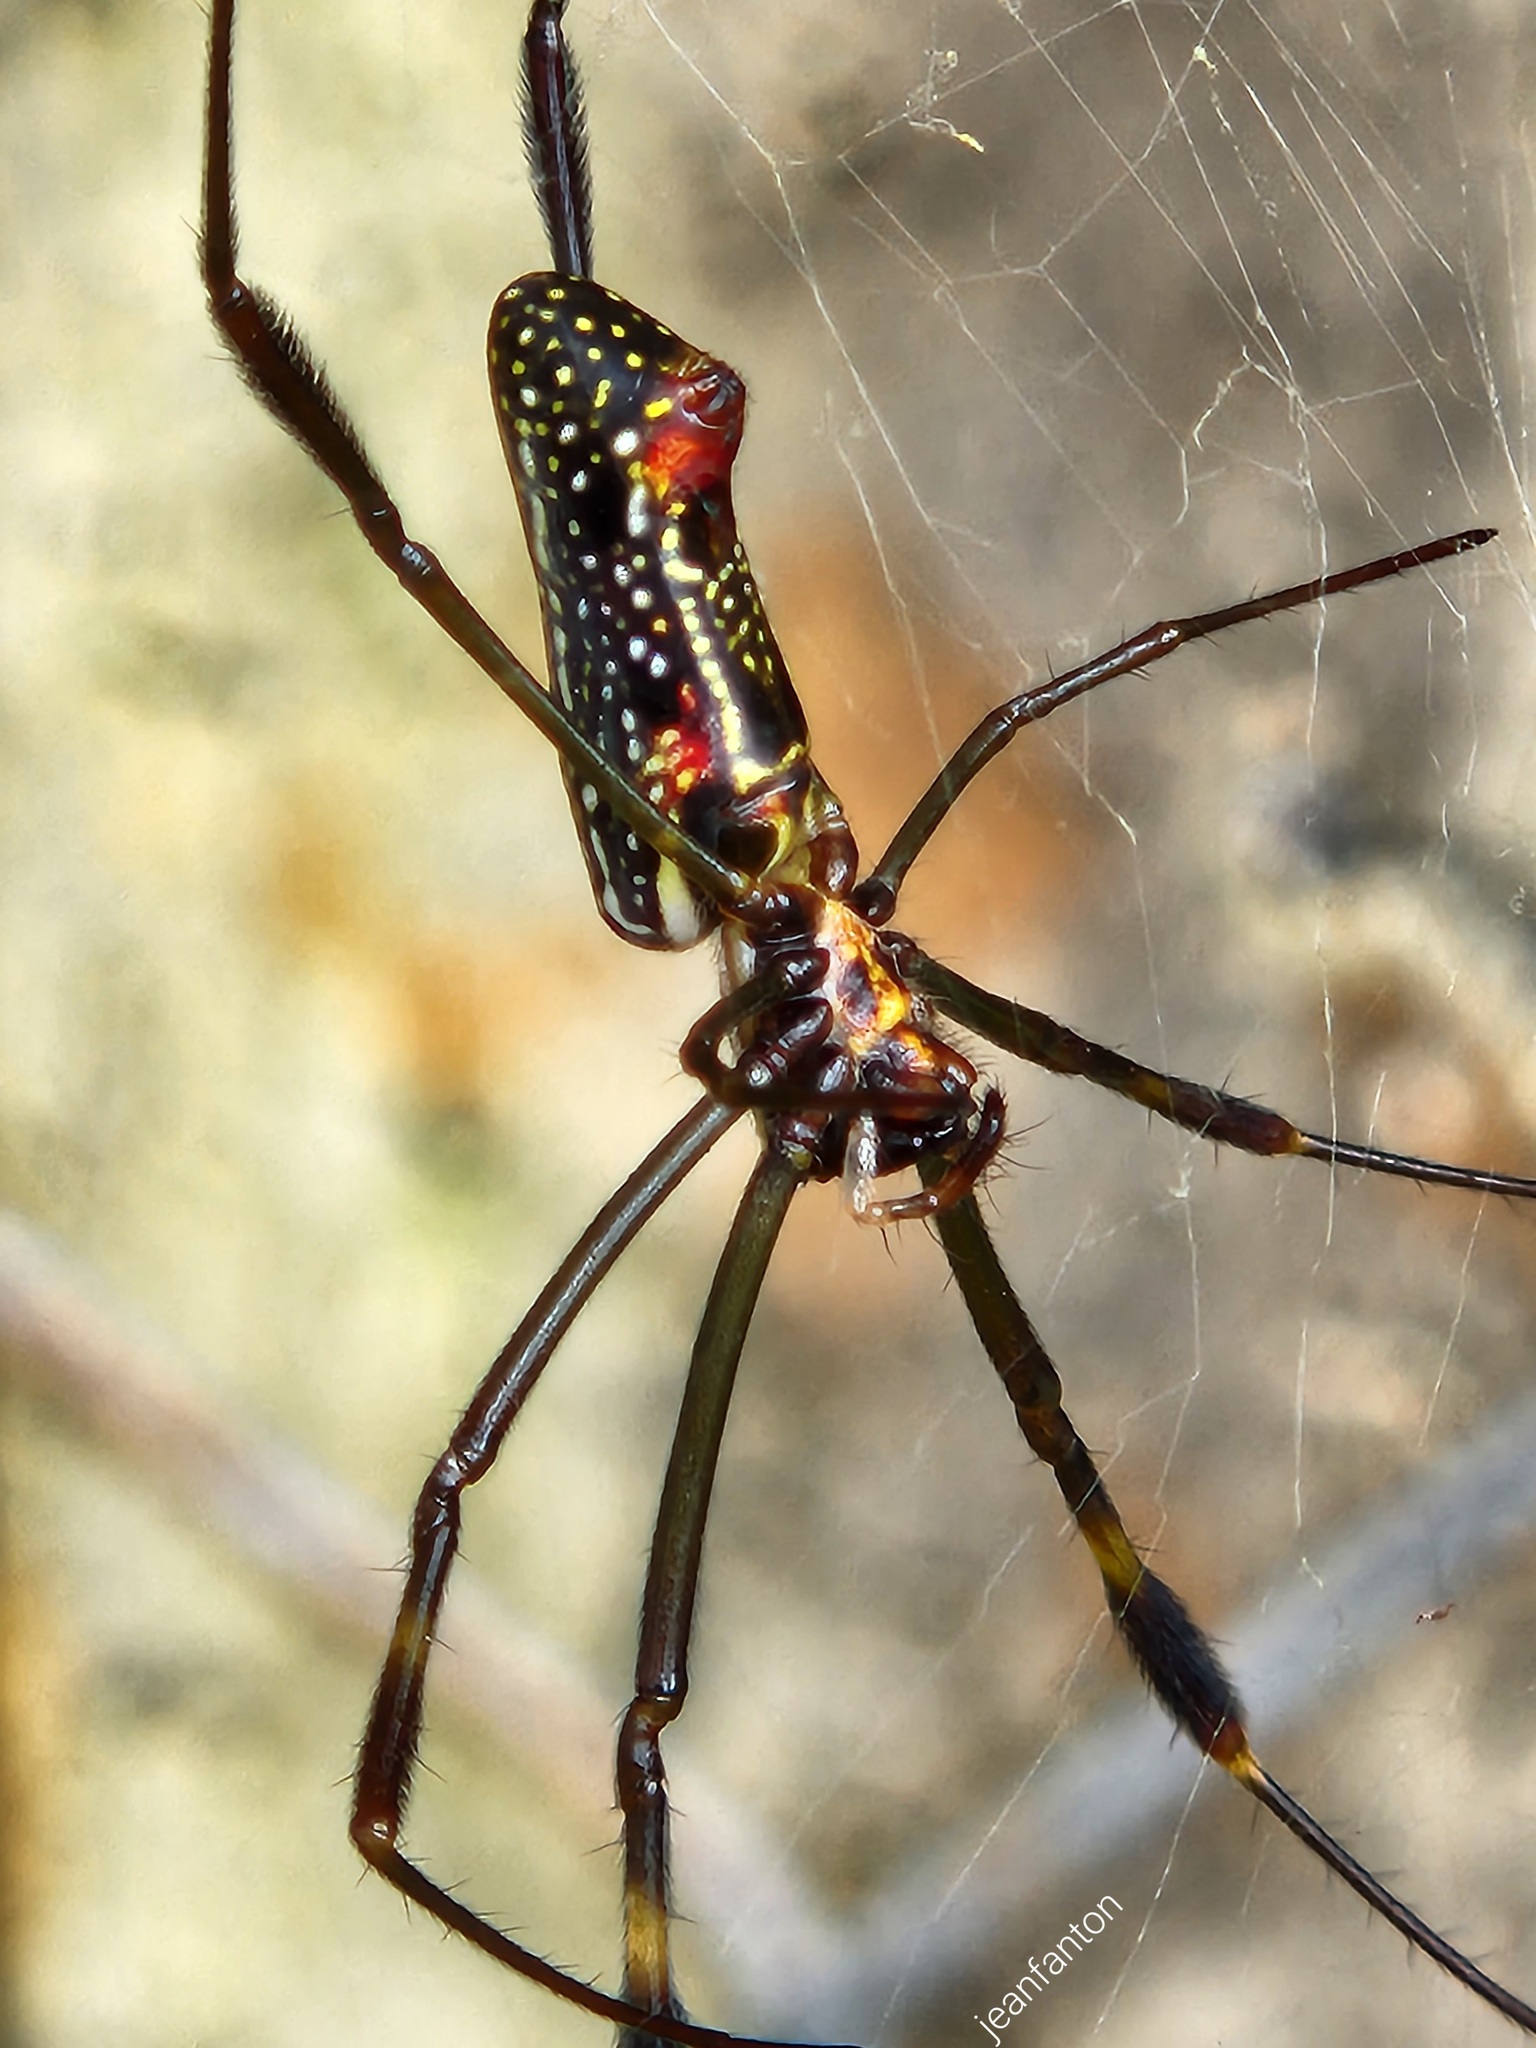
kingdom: Animalia
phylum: Arthropoda
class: Arachnida
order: Araneae
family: Araneidae
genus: Trichonephila
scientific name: Trichonephila clavipes
